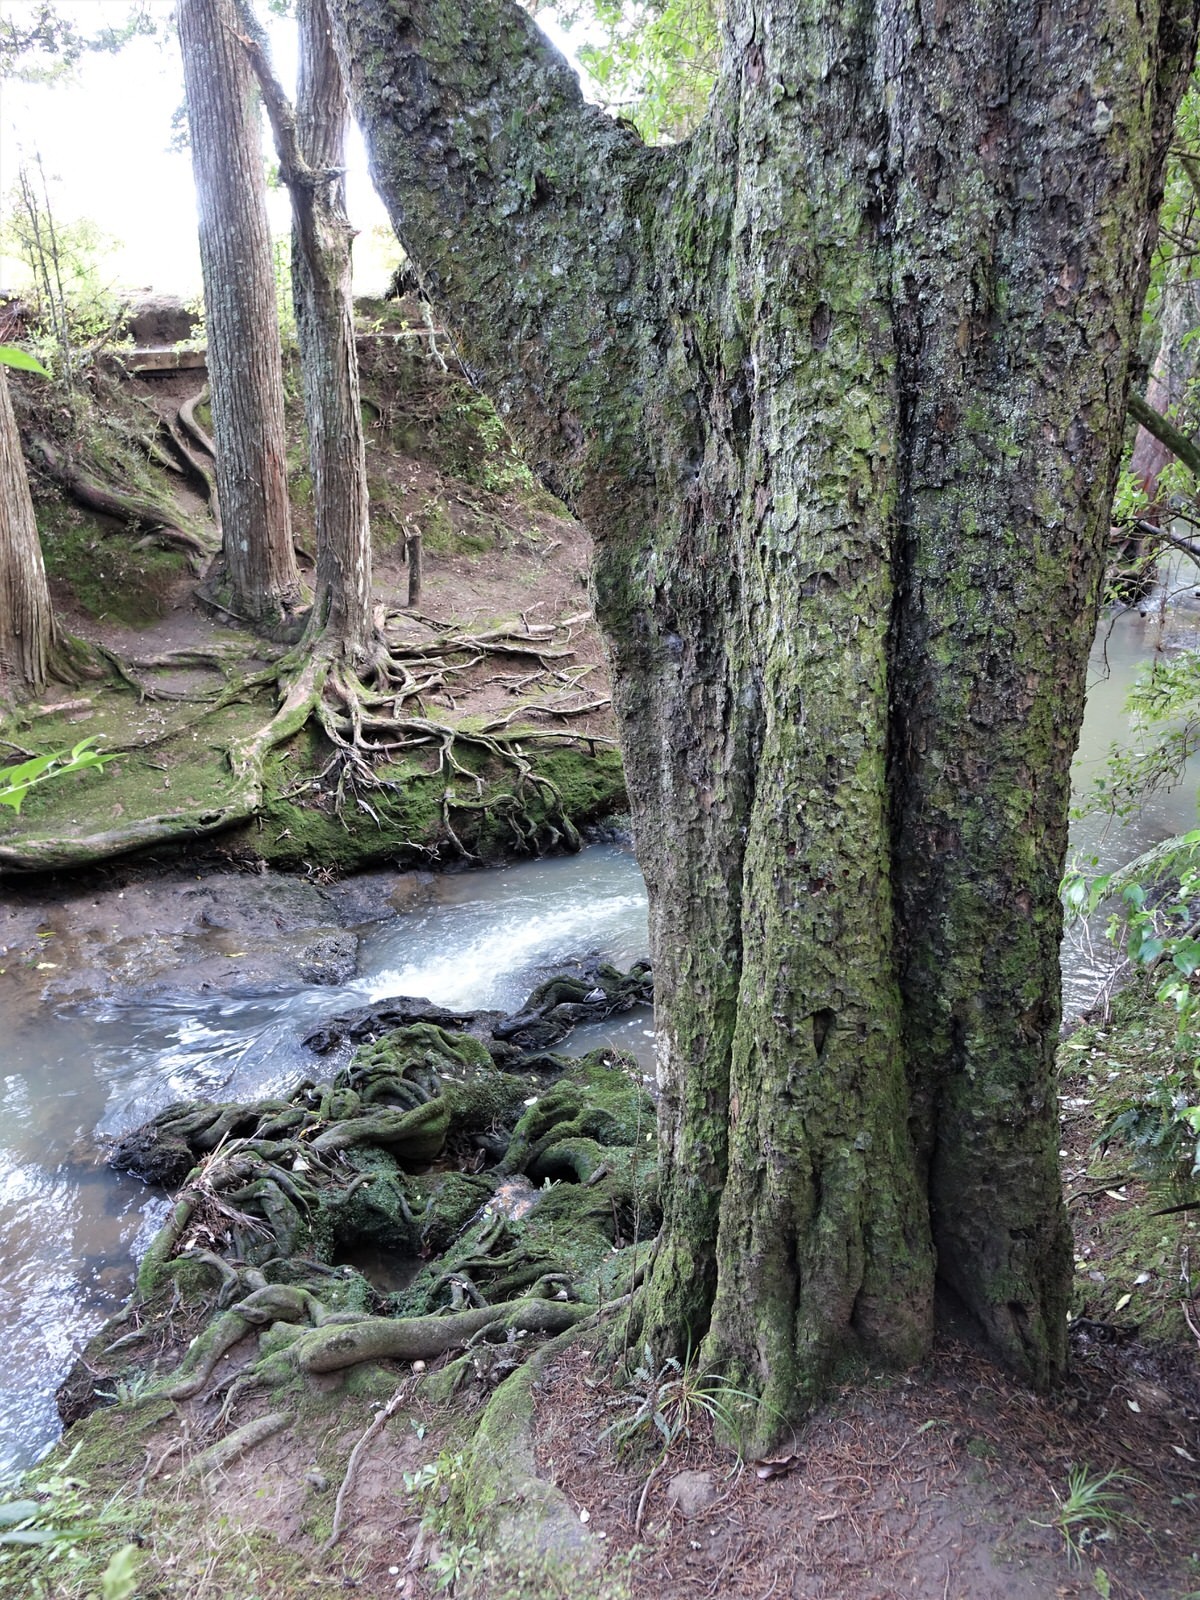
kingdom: Plantae
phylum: Tracheophyta
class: Pinopsida
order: Pinales
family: Podocarpaceae
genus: Dacrycarpus
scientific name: Dacrycarpus dacrydioides
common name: White pine
